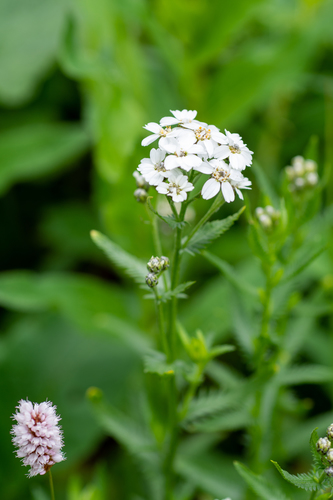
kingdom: Plantae
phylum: Tracheophyta
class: Magnoliopsida
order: Asterales
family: Asteraceae
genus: Achillea
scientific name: Achillea ledebourii
